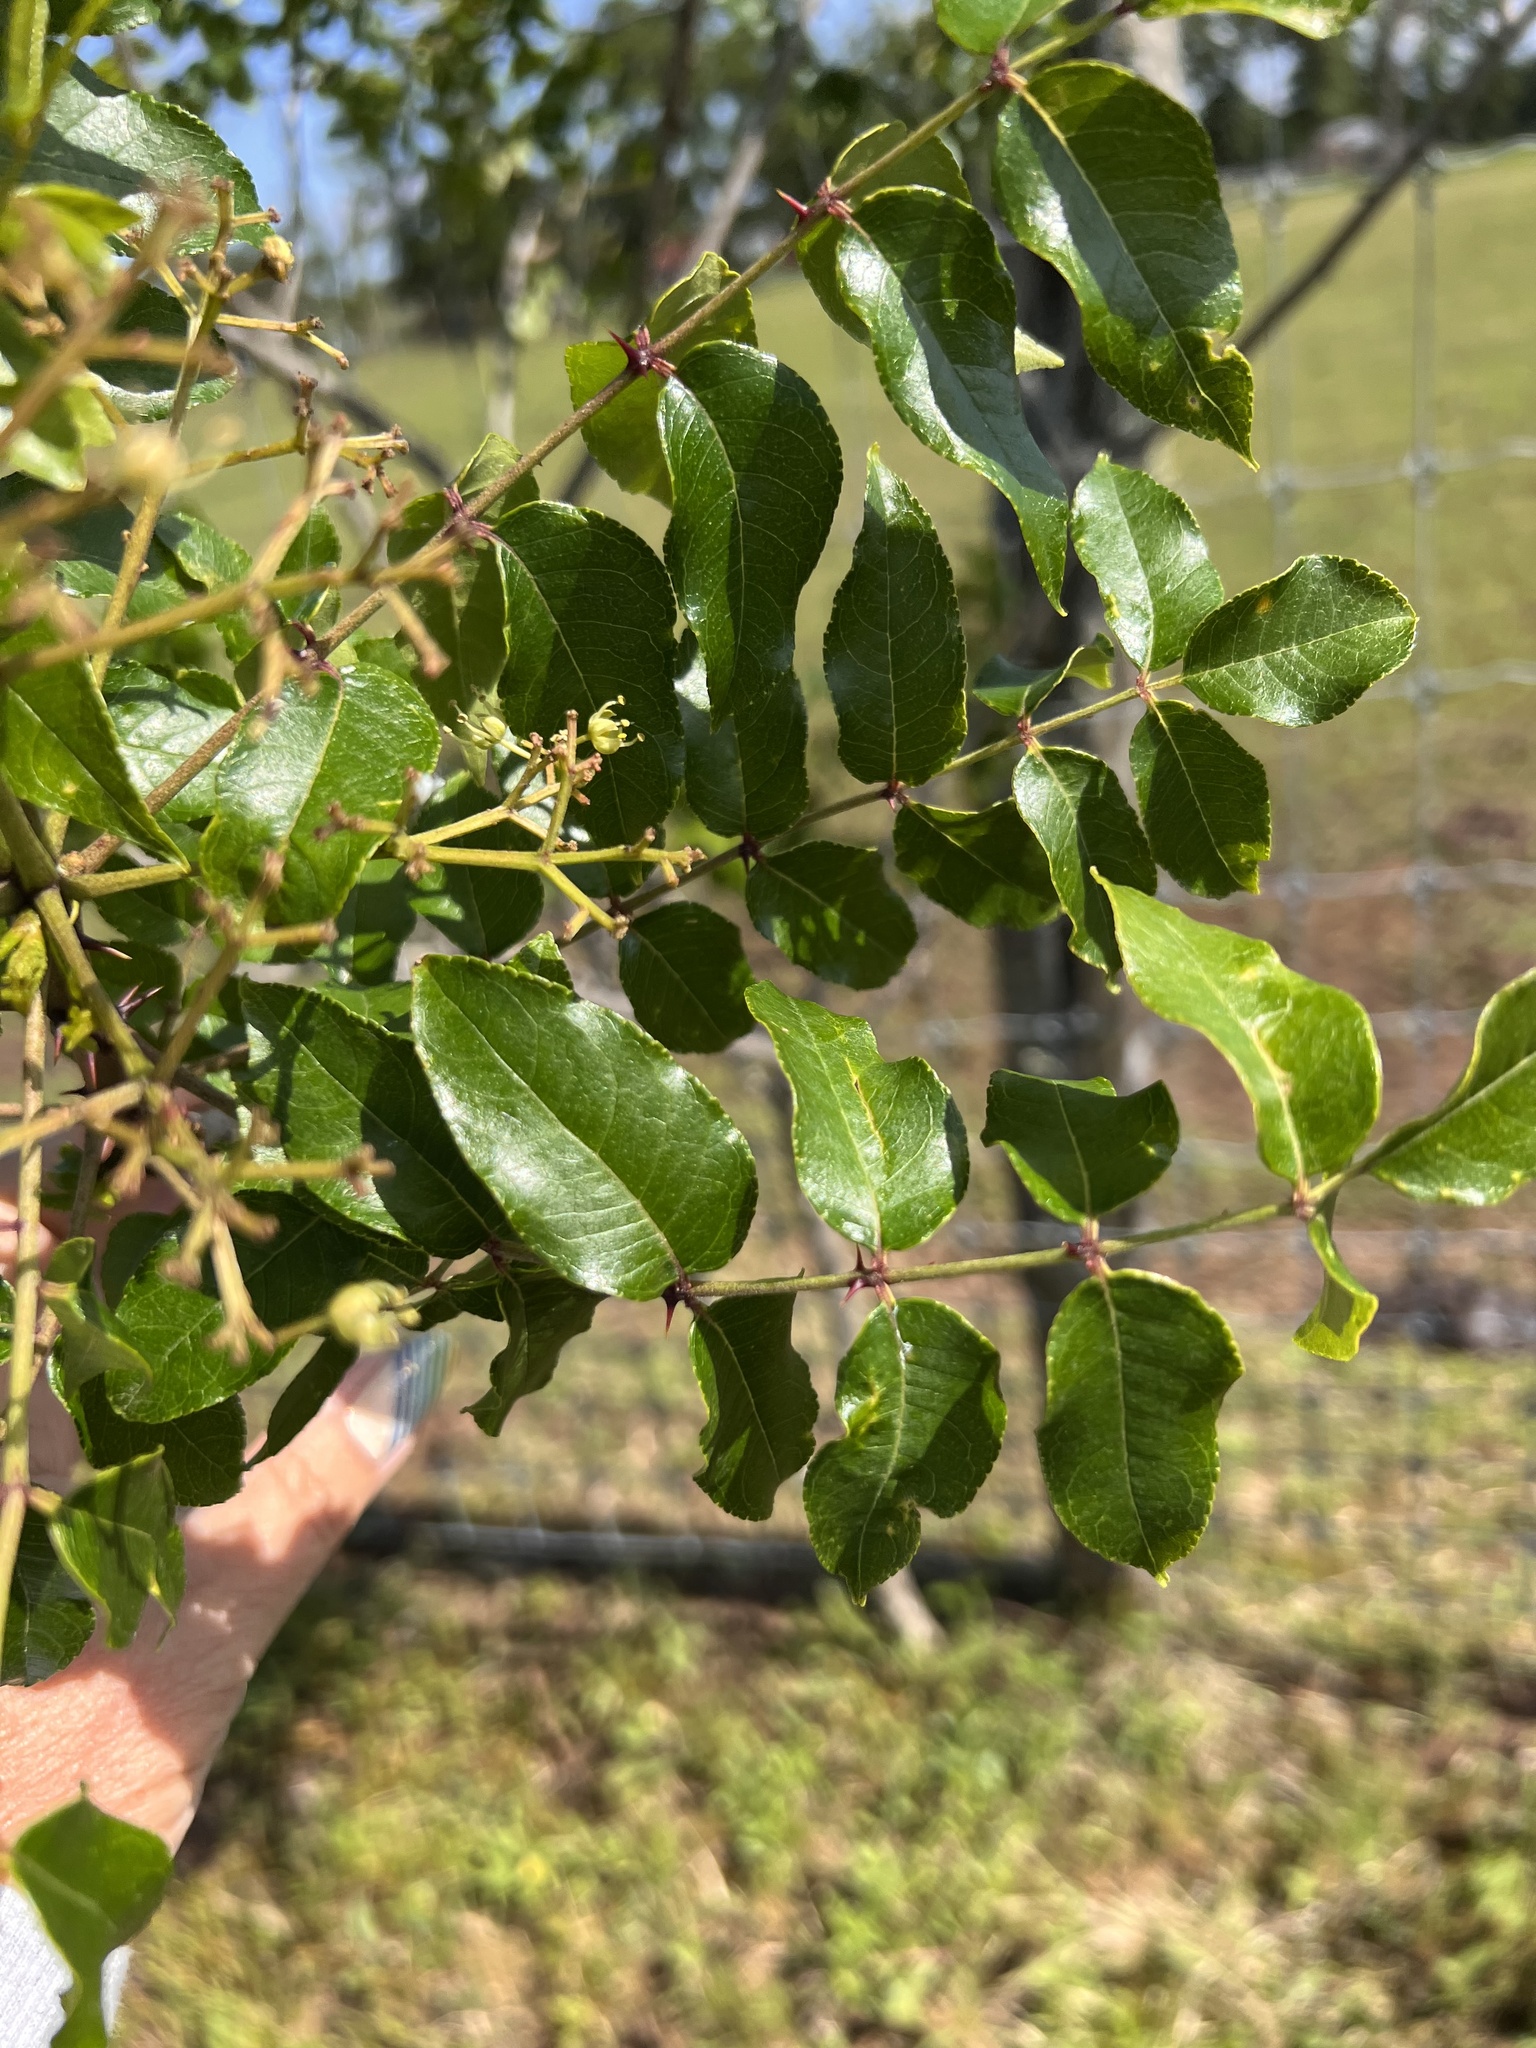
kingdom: Plantae
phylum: Tracheophyta
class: Magnoliopsida
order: Sapindales
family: Rutaceae
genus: Zanthoxylum
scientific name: Zanthoxylum clava-herculis
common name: Hercules'-club
